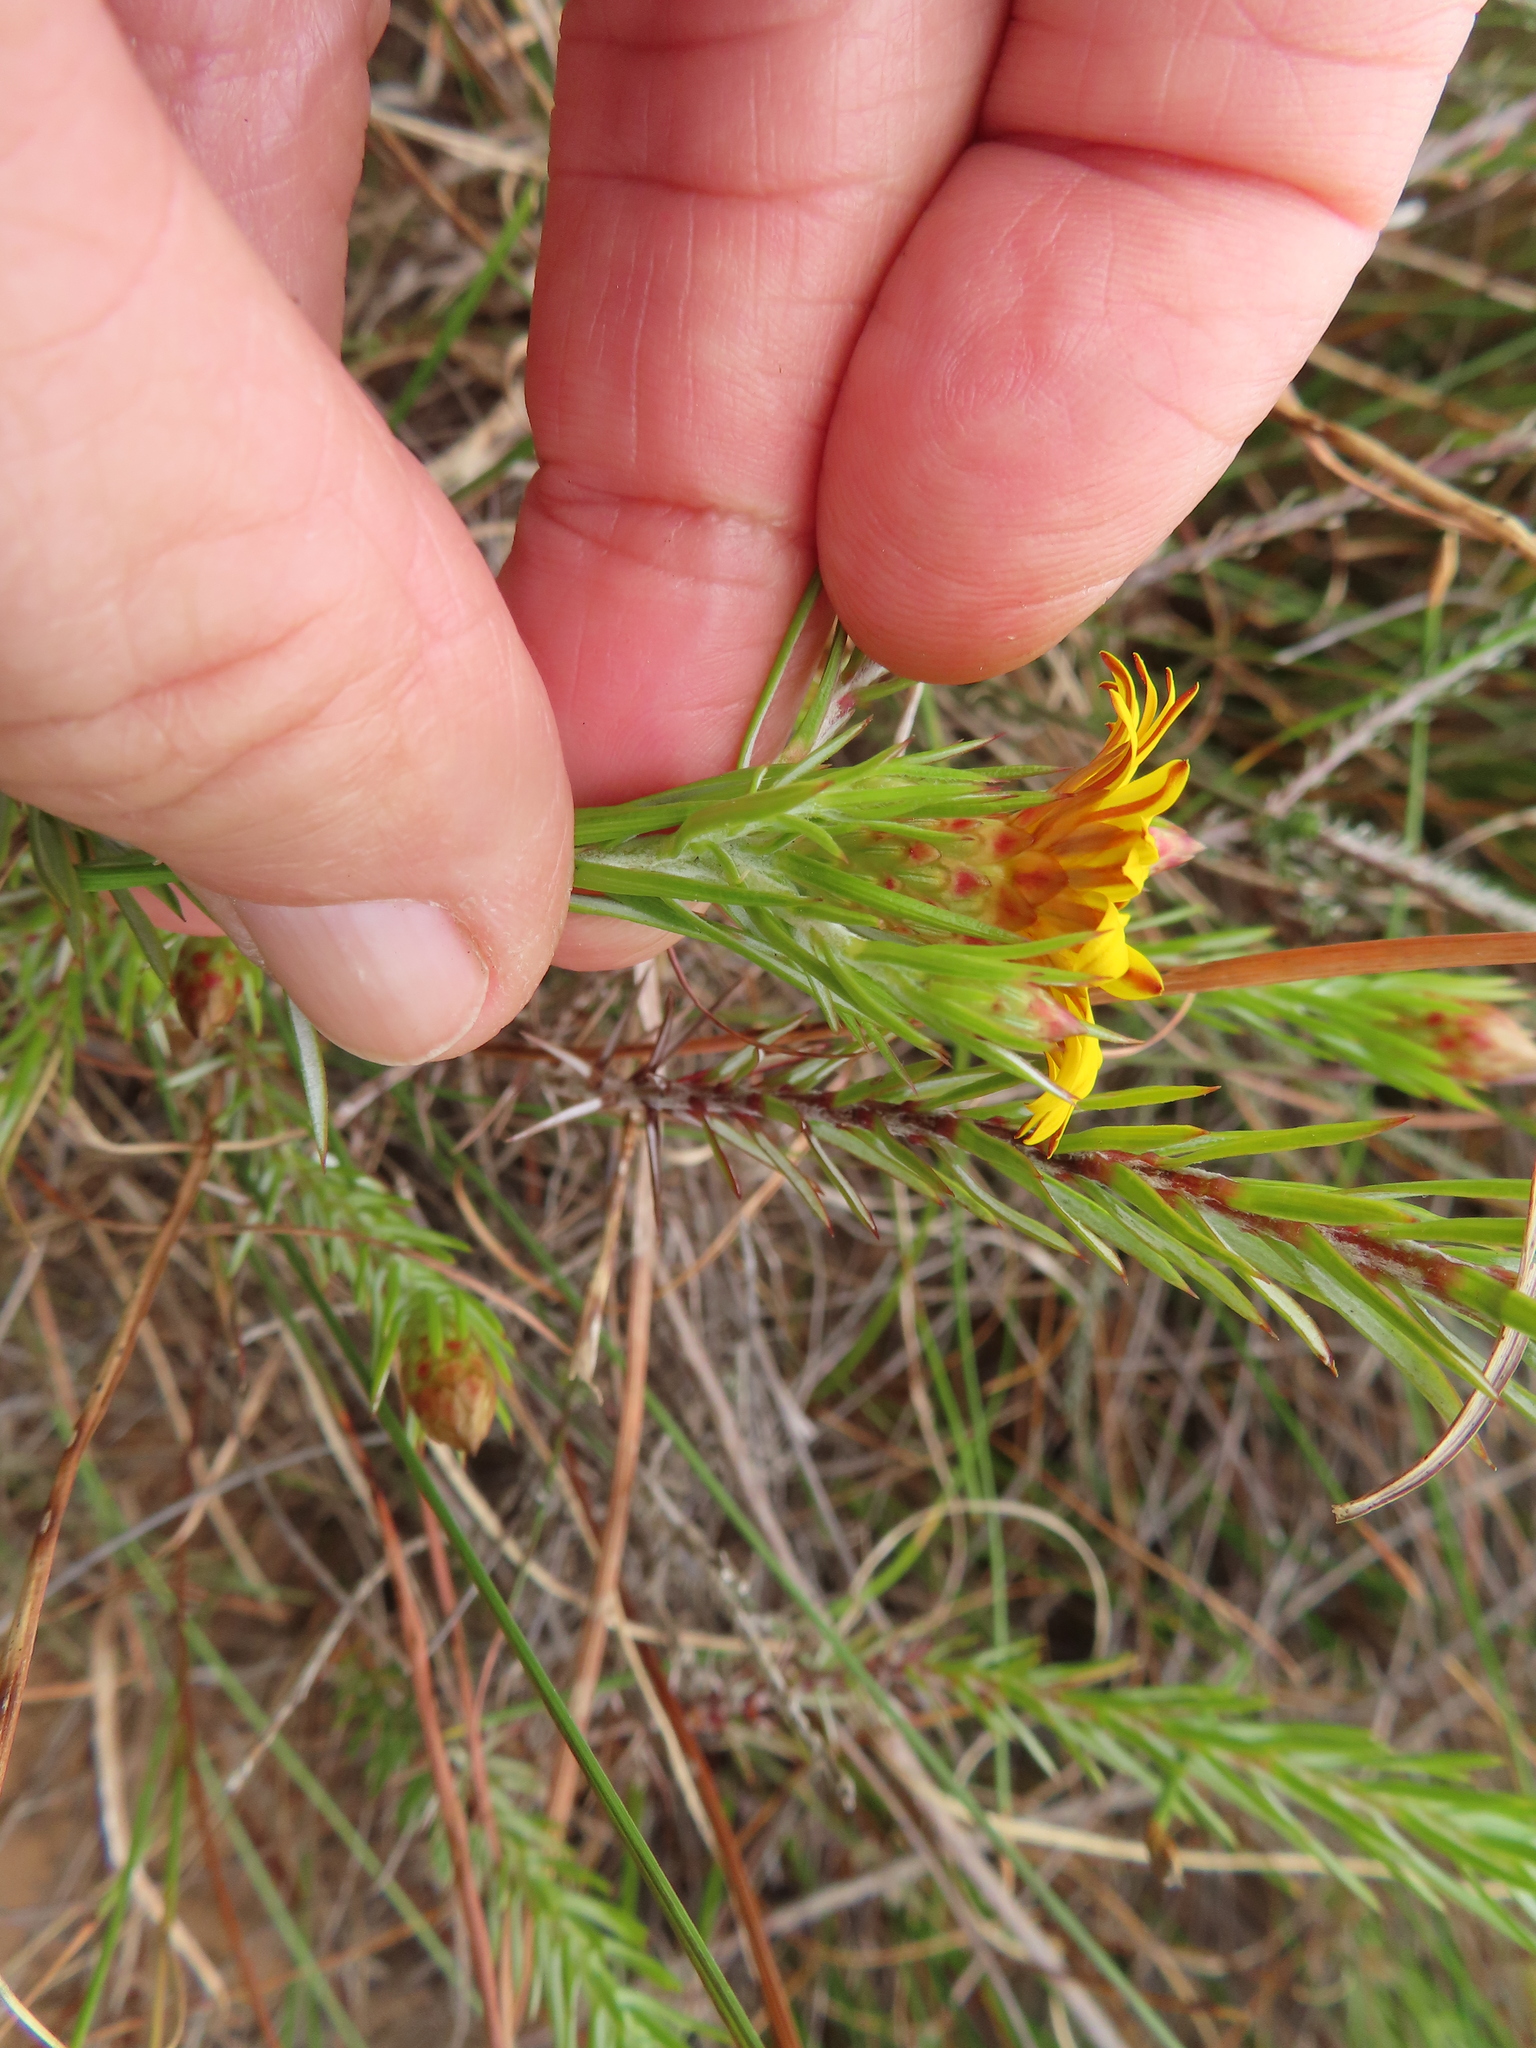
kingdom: Plantae
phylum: Tracheophyta
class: Magnoliopsida
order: Asterales
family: Asteraceae
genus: Oedera
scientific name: Oedera pungens
